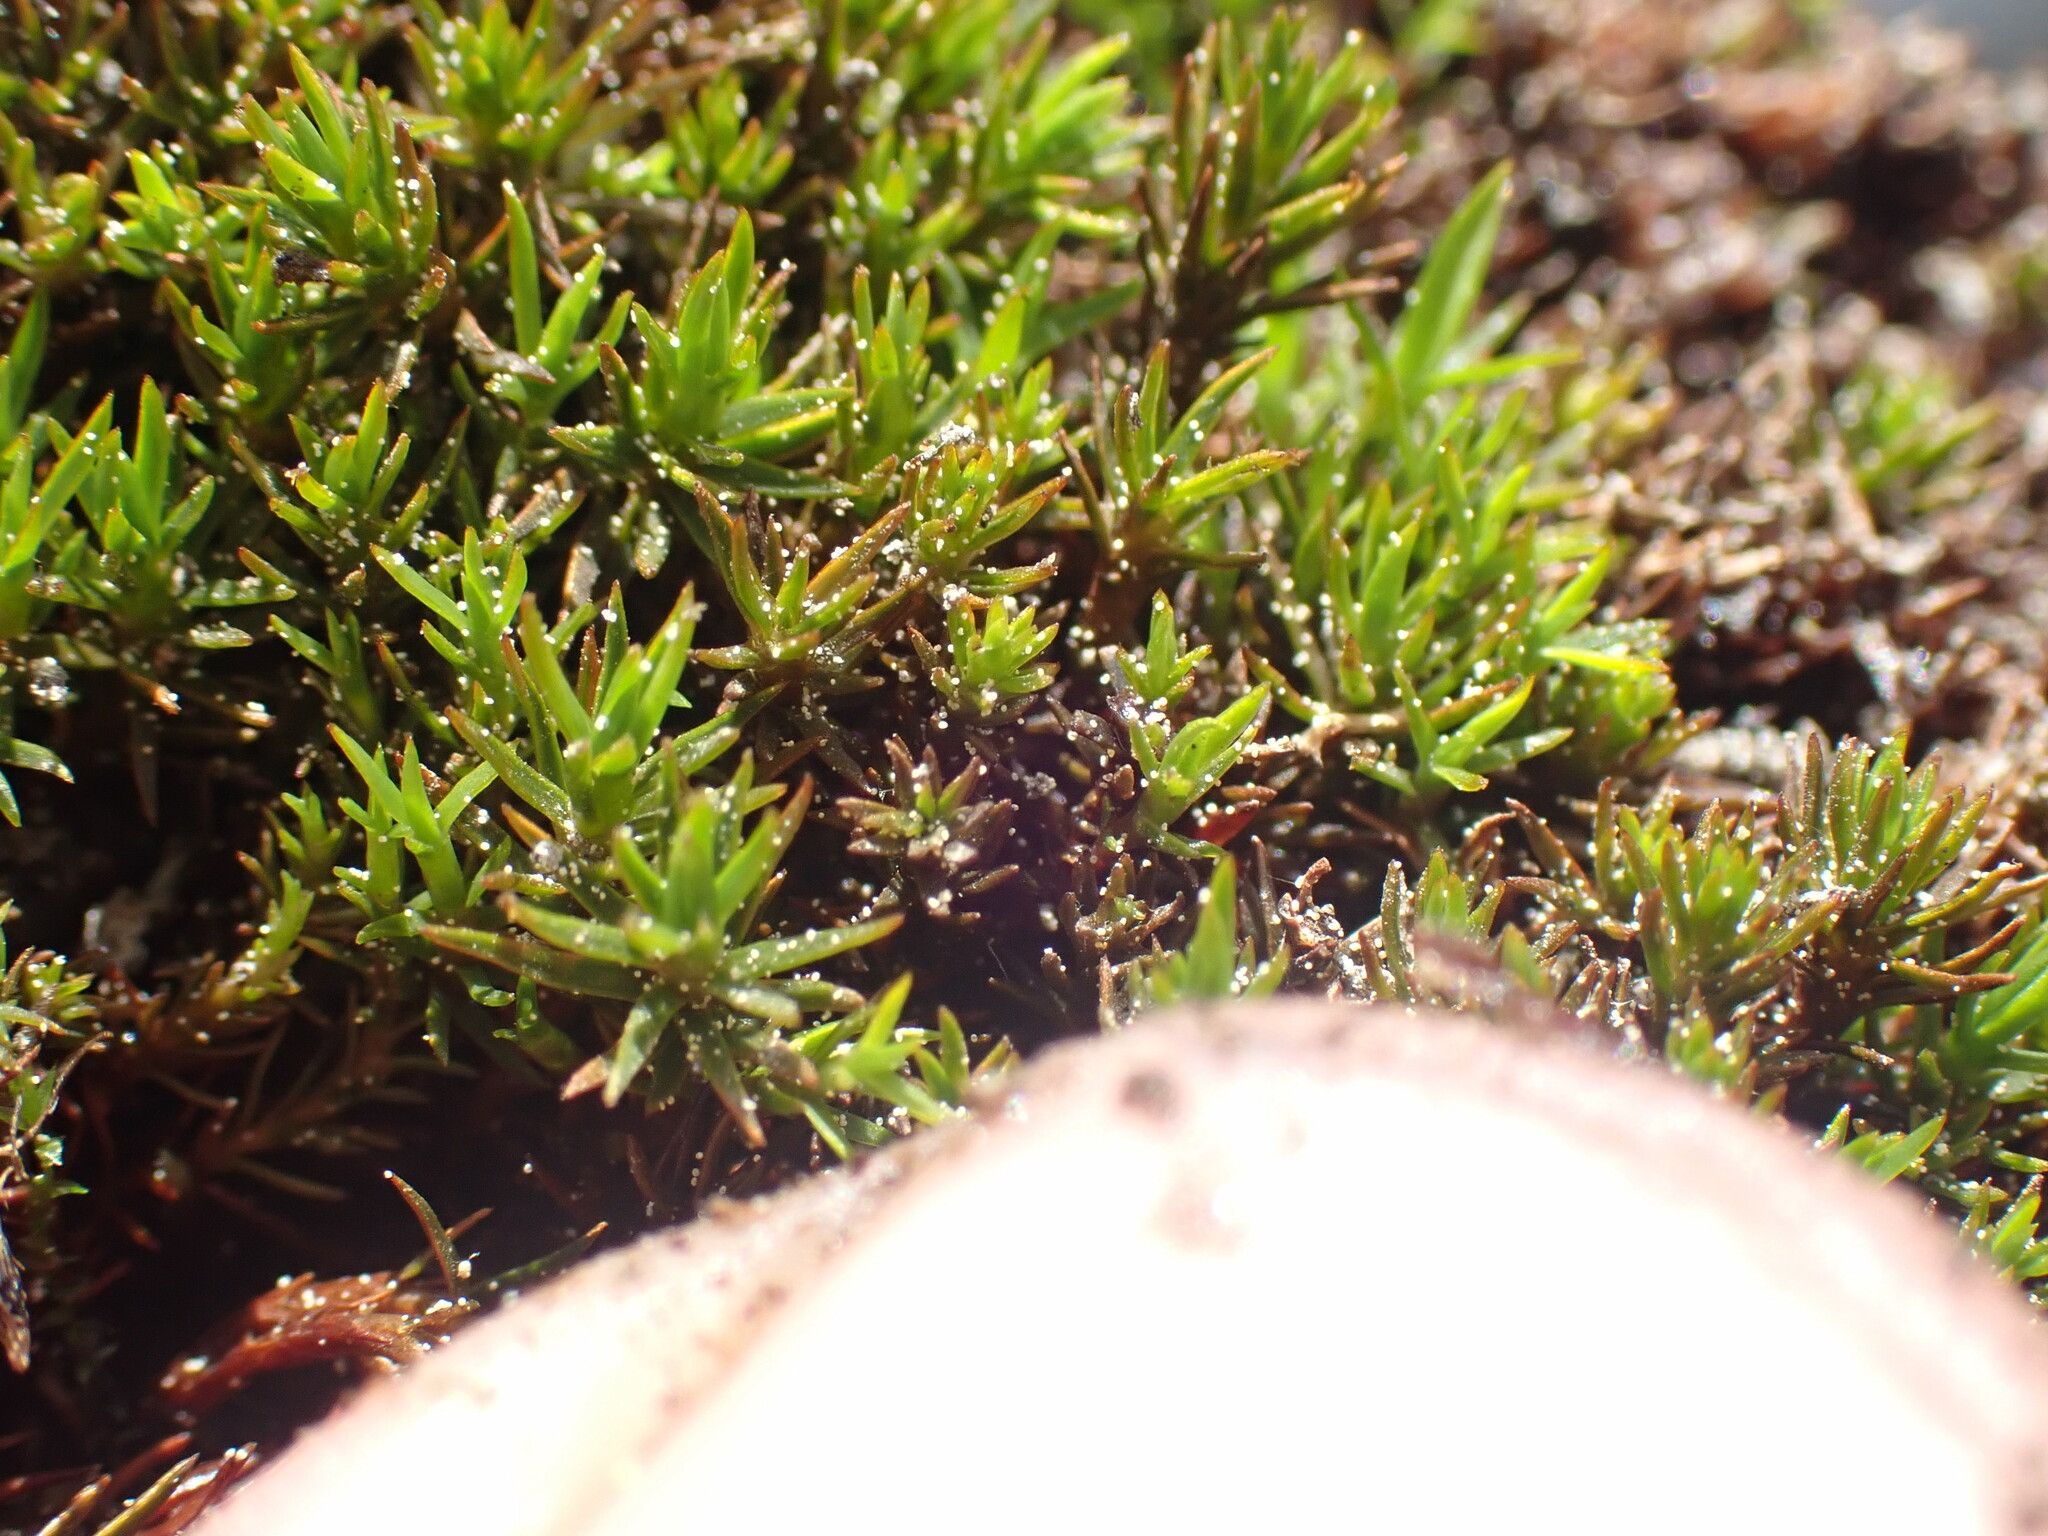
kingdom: Plantae
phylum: Bryophyta
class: Polytrichopsida
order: Polytrichales
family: Polytrichaceae
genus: Pogonatum
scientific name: Pogonatum urnigerum
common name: Urn hair moss
